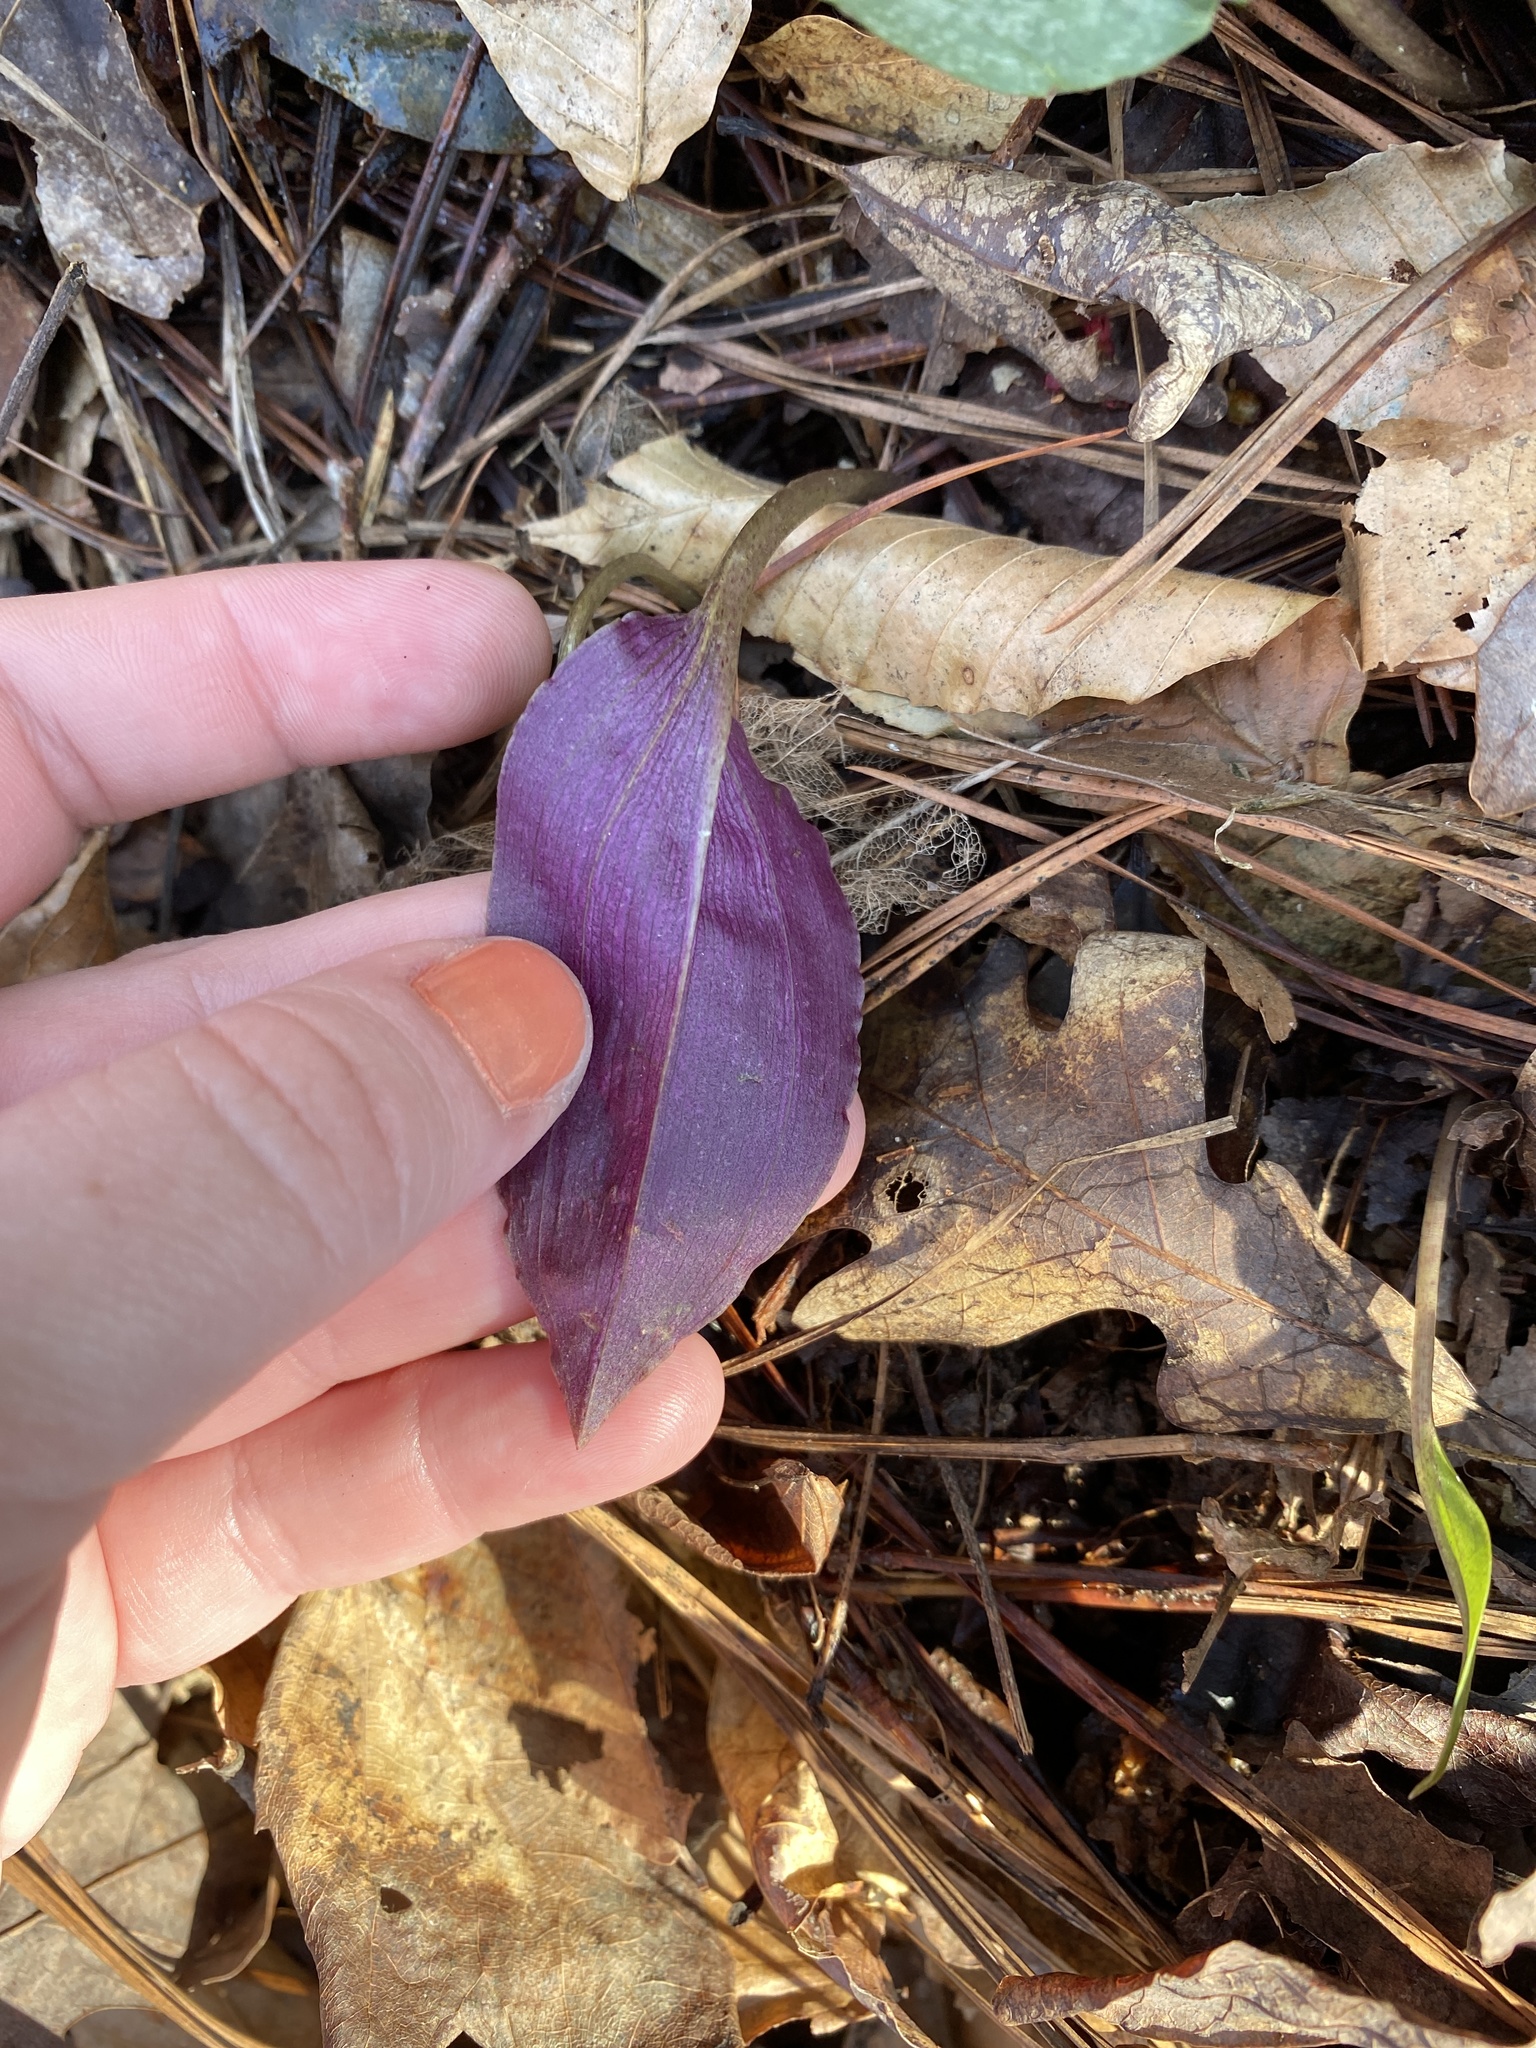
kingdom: Plantae
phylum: Tracheophyta
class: Liliopsida
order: Asparagales
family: Orchidaceae
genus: Tipularia
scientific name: Tipularia discolor
